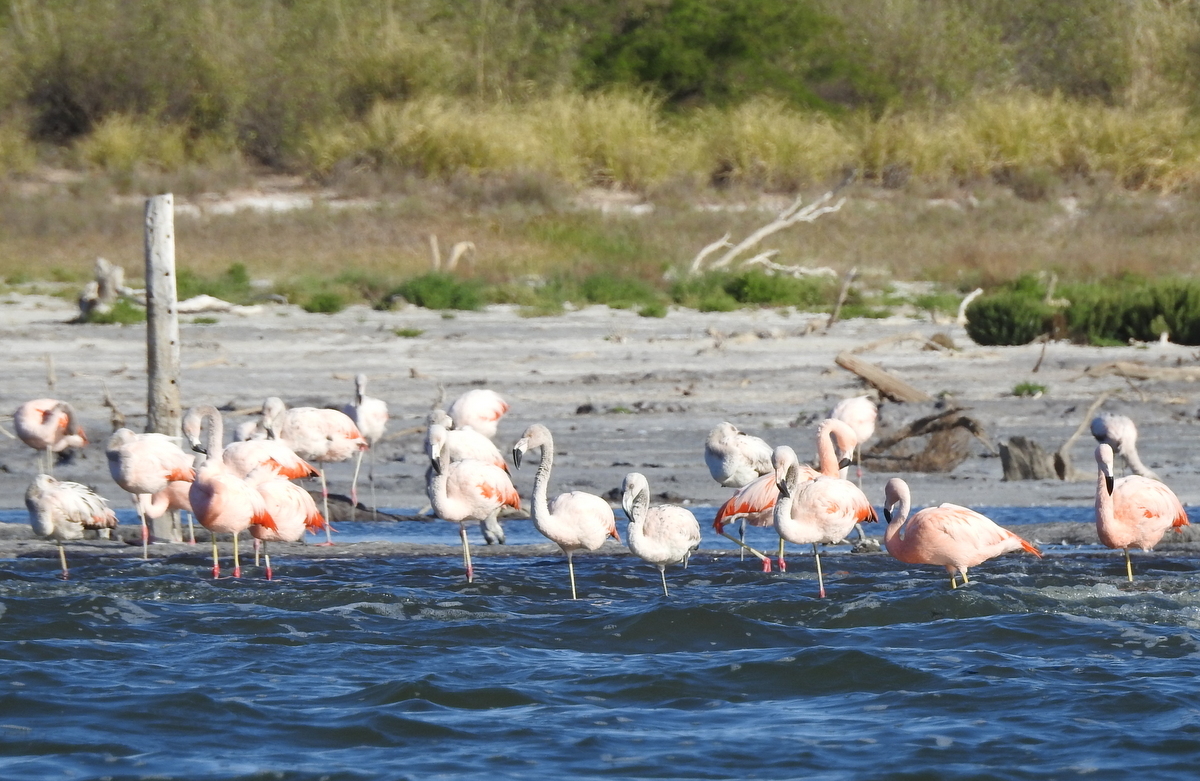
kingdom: Animalia
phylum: Chordata
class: Aves
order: Phoenicopteriformes
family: Phoenicopteridae
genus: Phoenicopterus
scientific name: Phoenicopterus chilensis
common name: Chilean flamingo
